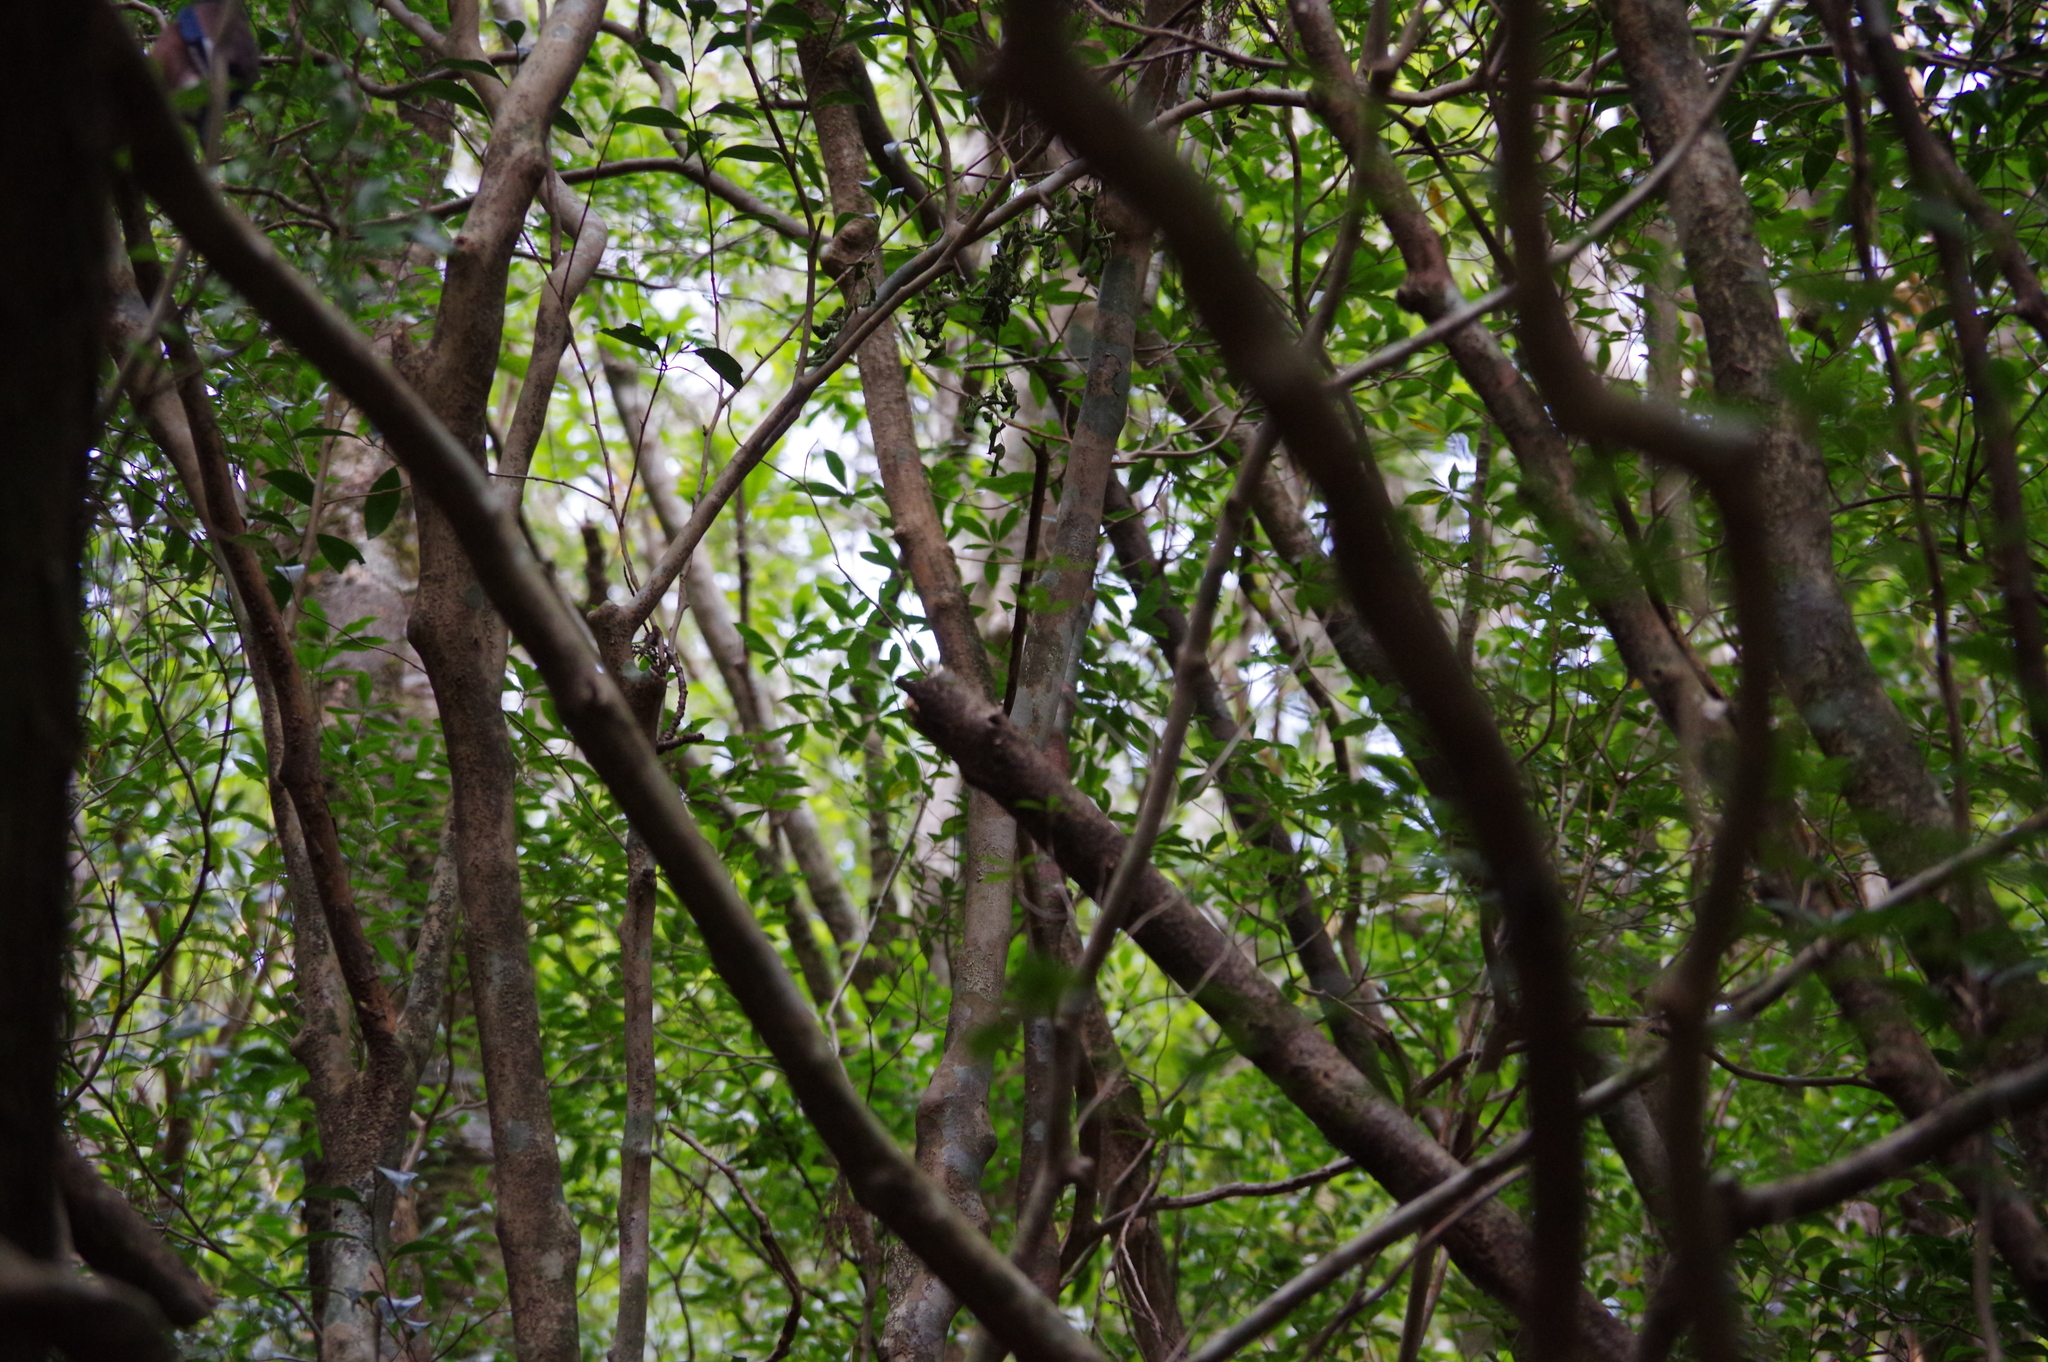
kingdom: Animalia
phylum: Chordata
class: Aves
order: Passeriformes
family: Corvidae
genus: Garrulus
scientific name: Garrulus glandarius
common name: Eurasian jay
